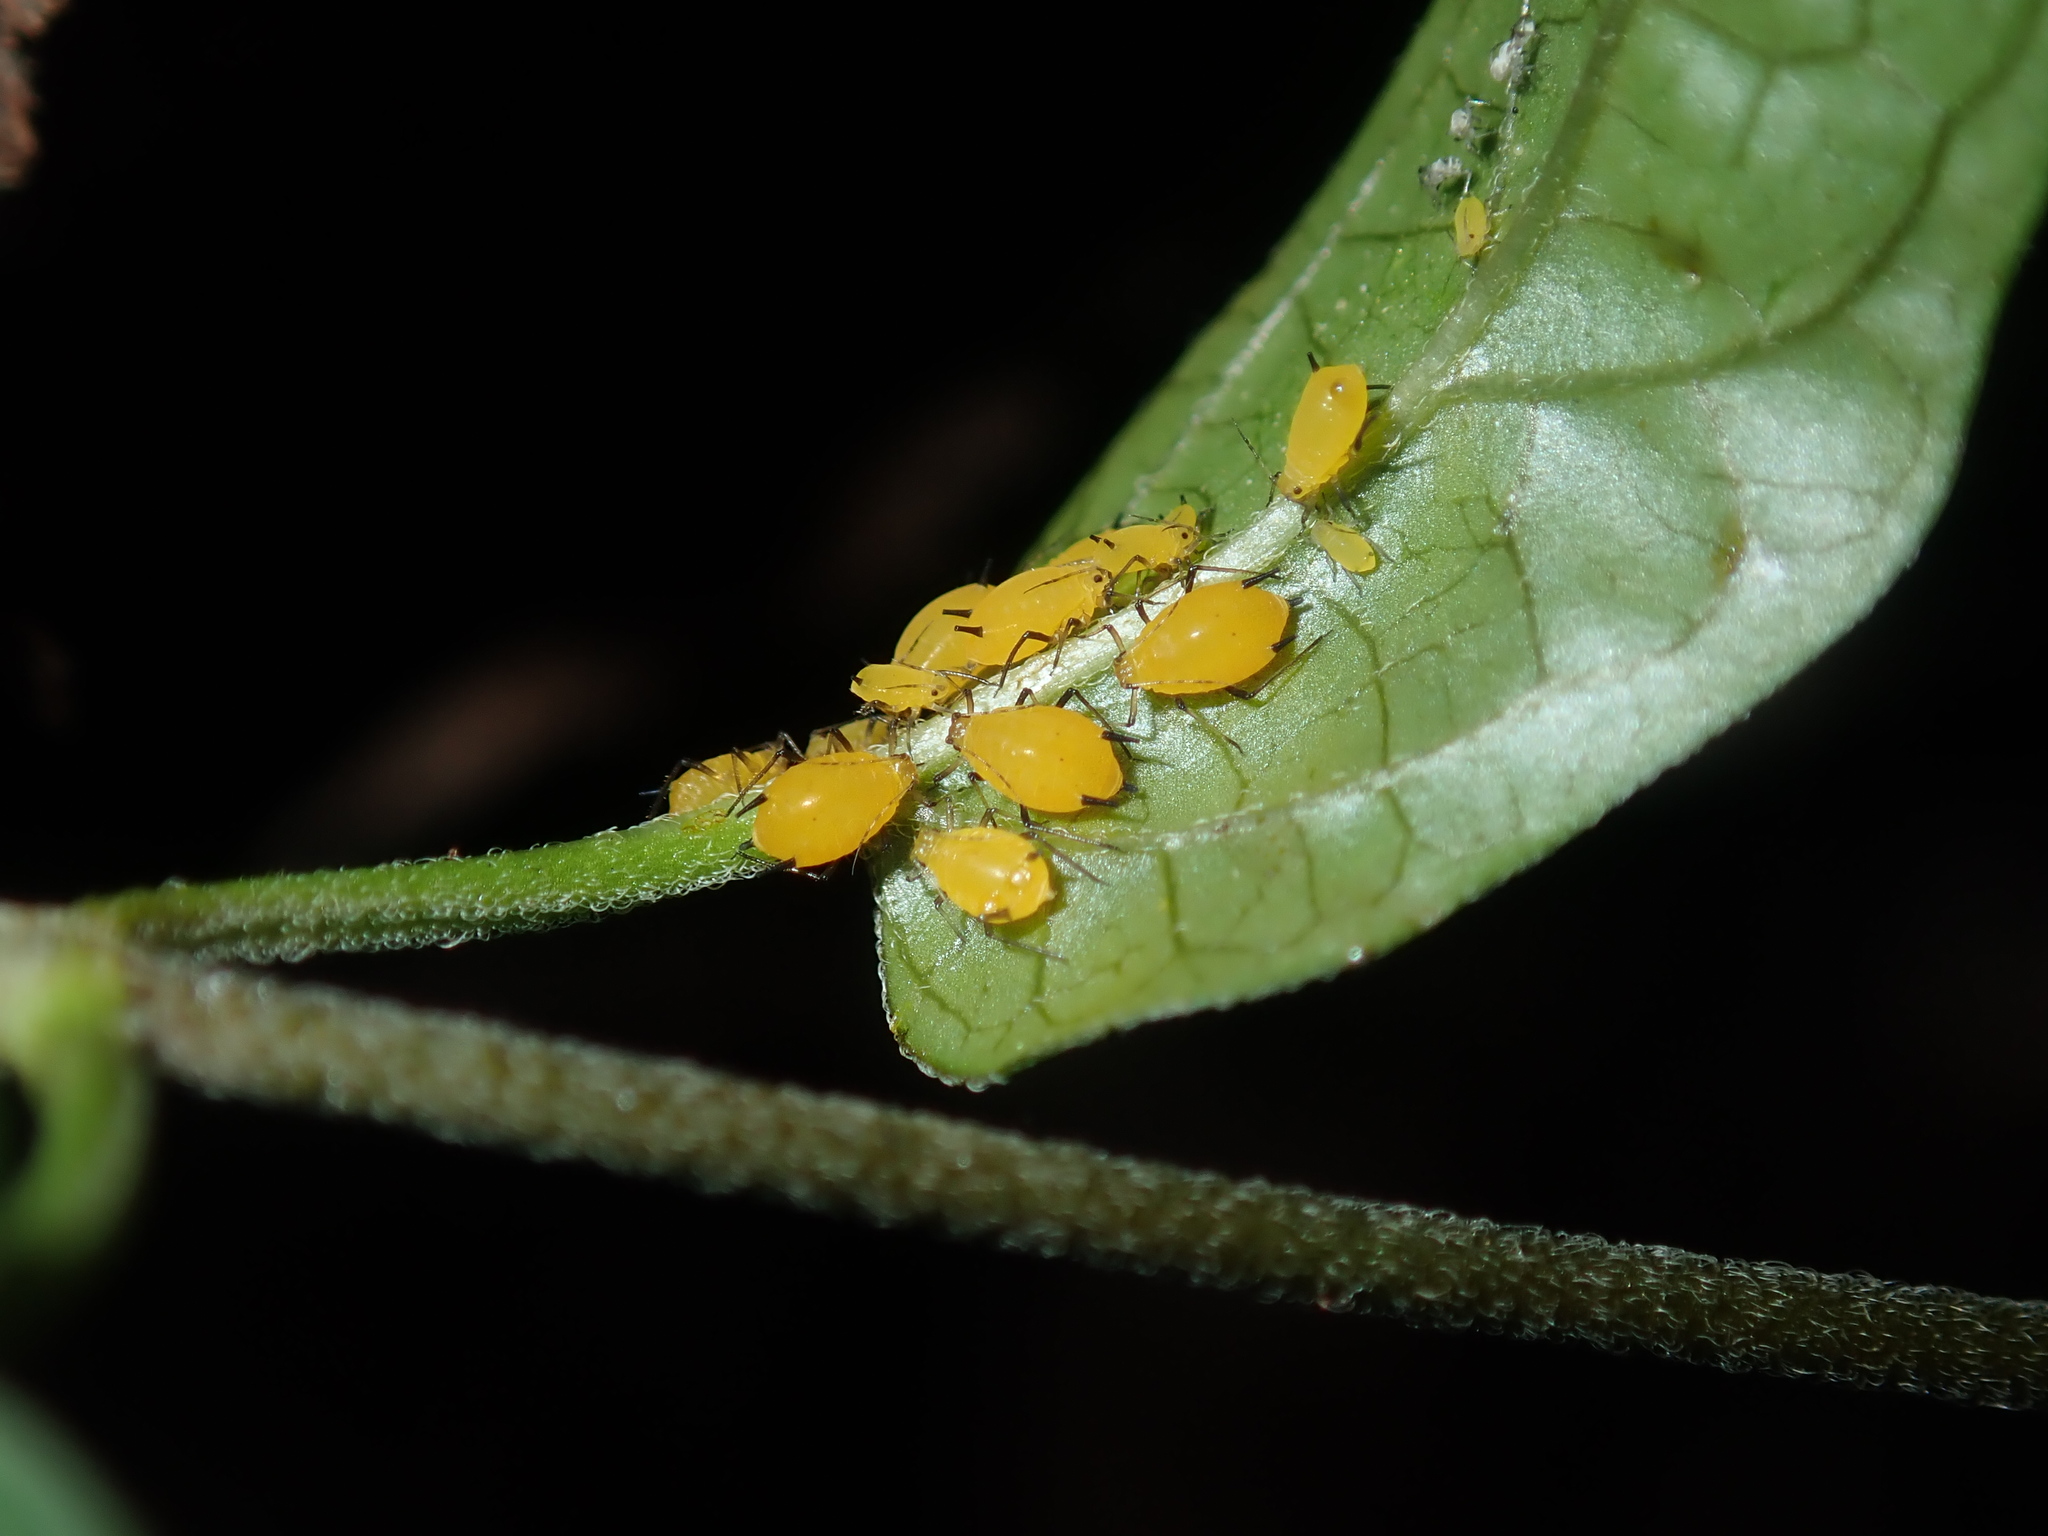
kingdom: Animalia
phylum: Arthropoda
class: Insecta
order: Hemiptera
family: Aphididae
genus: Aphis
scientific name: Aphis nerii
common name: Oleander aphid
